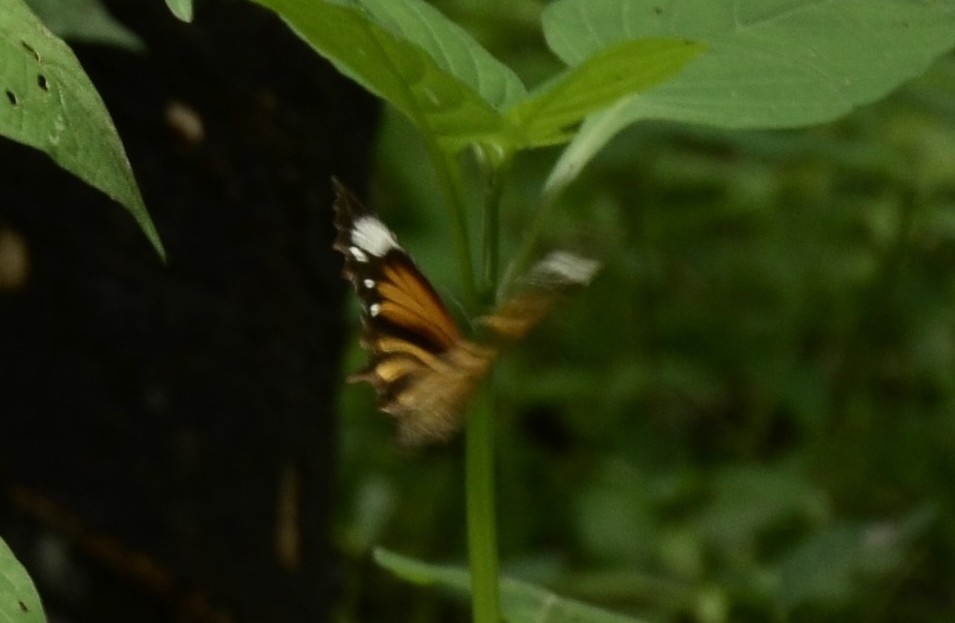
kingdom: Animalia
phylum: Arthropoda
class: Insecta
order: Lepidoptera
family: Nymphalidae
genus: Elymnias
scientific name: Elymnias caudata
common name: Tailed palmfly
